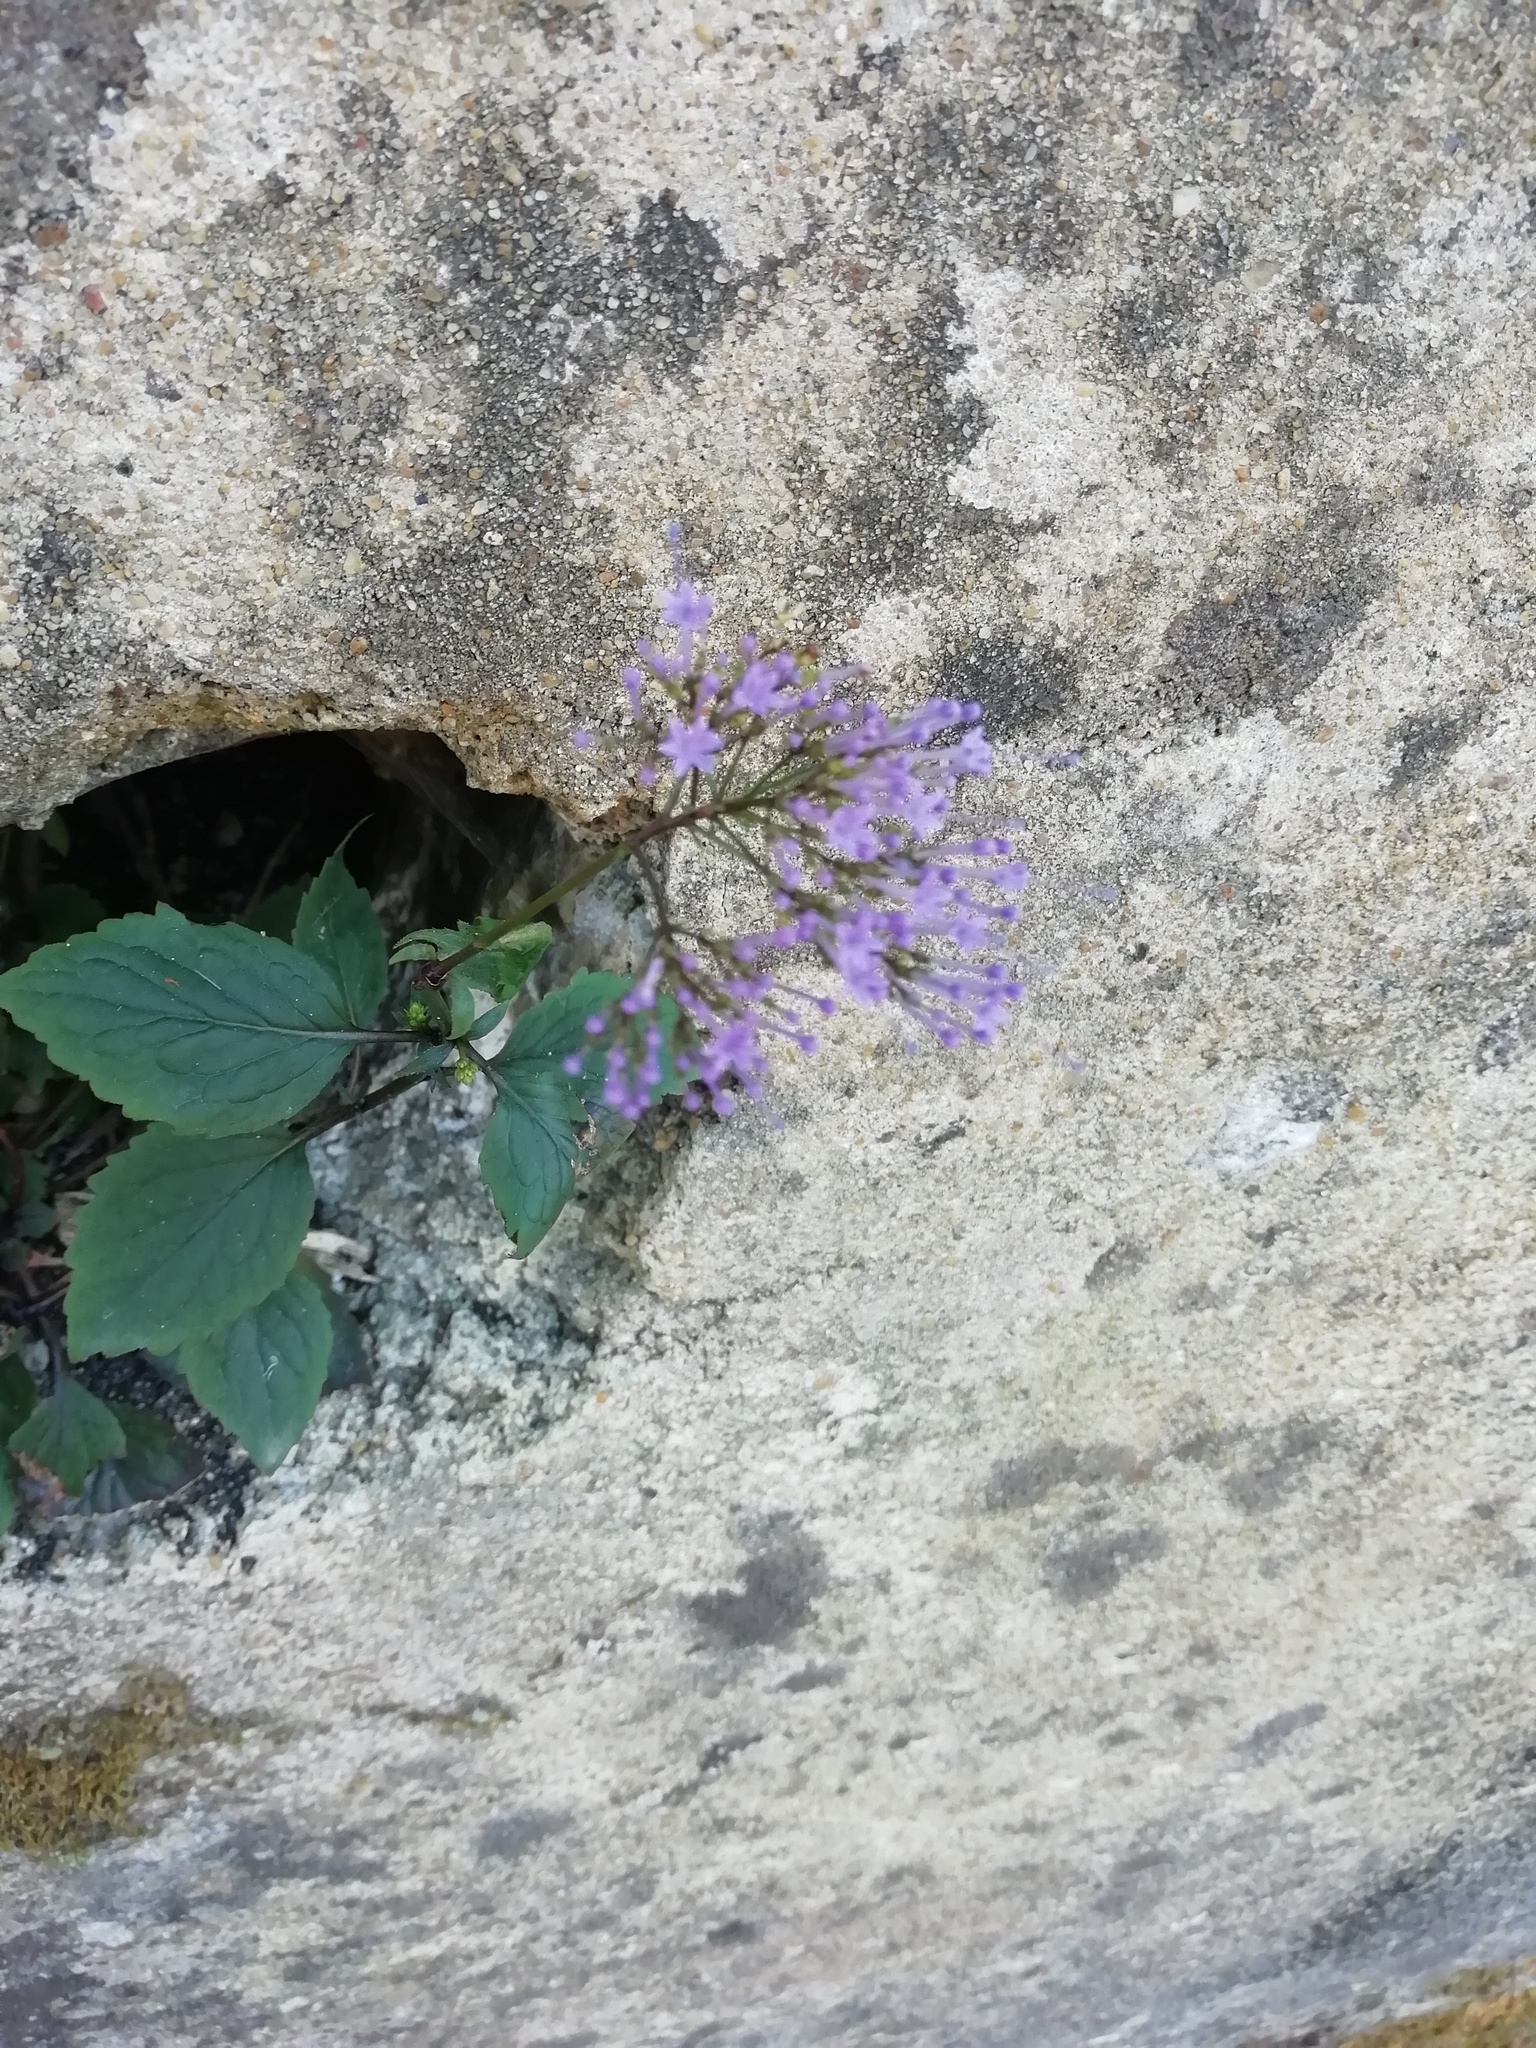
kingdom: Plantae
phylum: Tracheophyta
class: Magnoliopsida
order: Asterales
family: Campanulaceae
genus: Trachelium
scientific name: Trachelium caeruleum
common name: Throatwort
